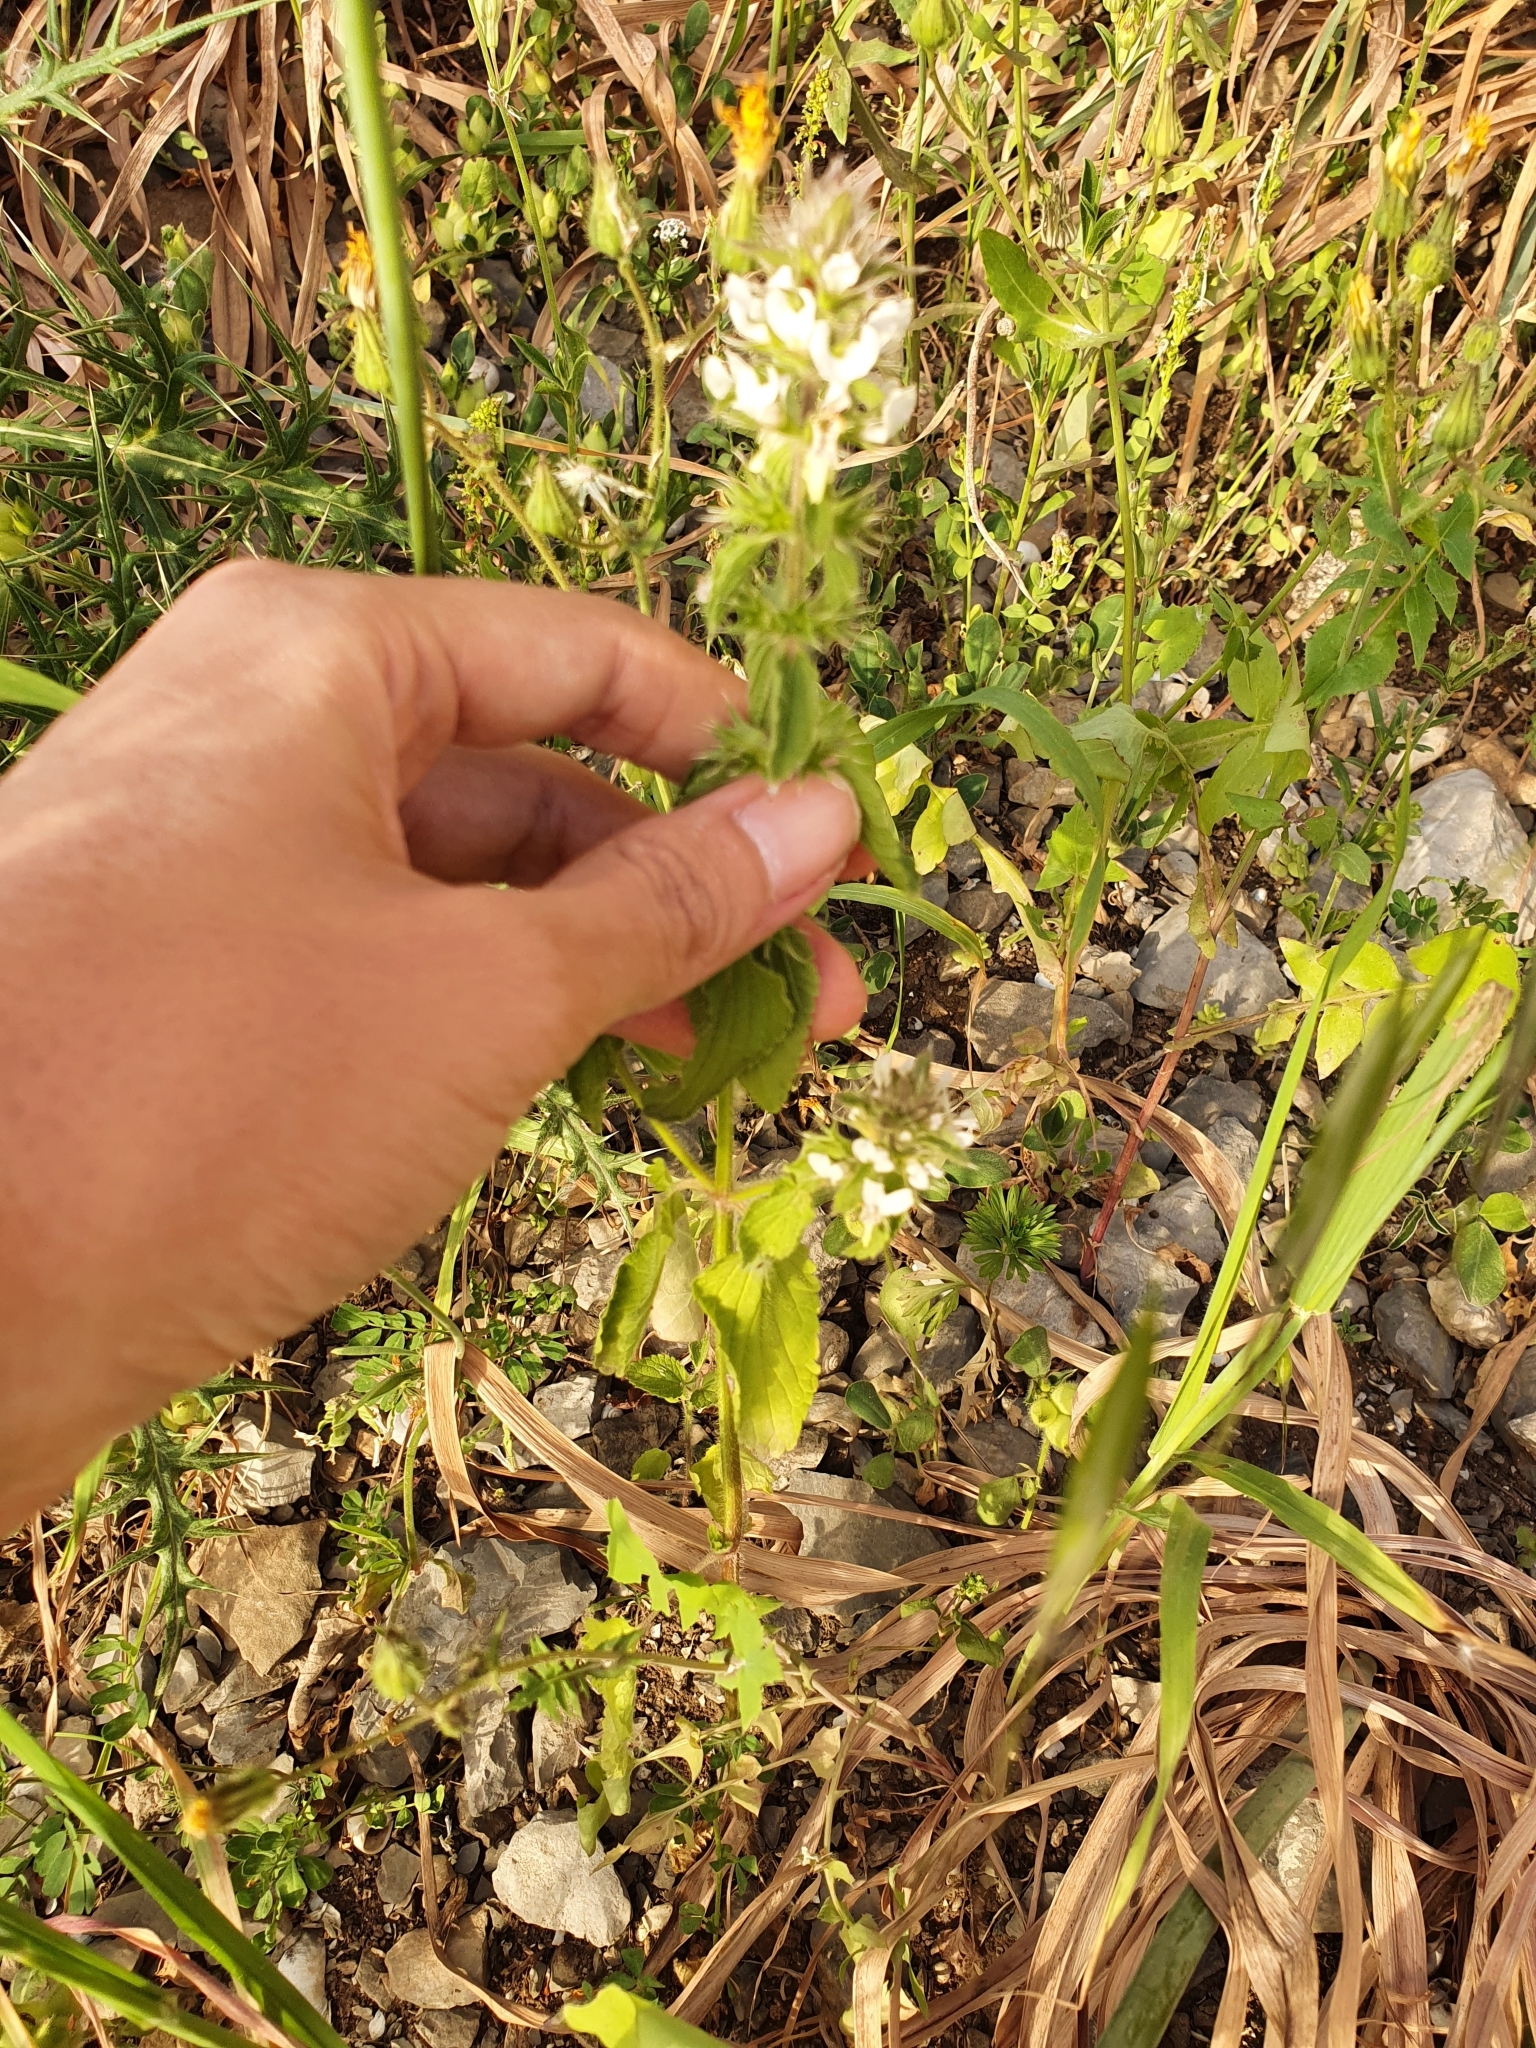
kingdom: Plantae
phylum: Tracheophyta
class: Magnoliopsida
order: Lamiales
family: Lamiaceae
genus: Stachys
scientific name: Stachys ocymastrum
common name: Italian hedgenettle
